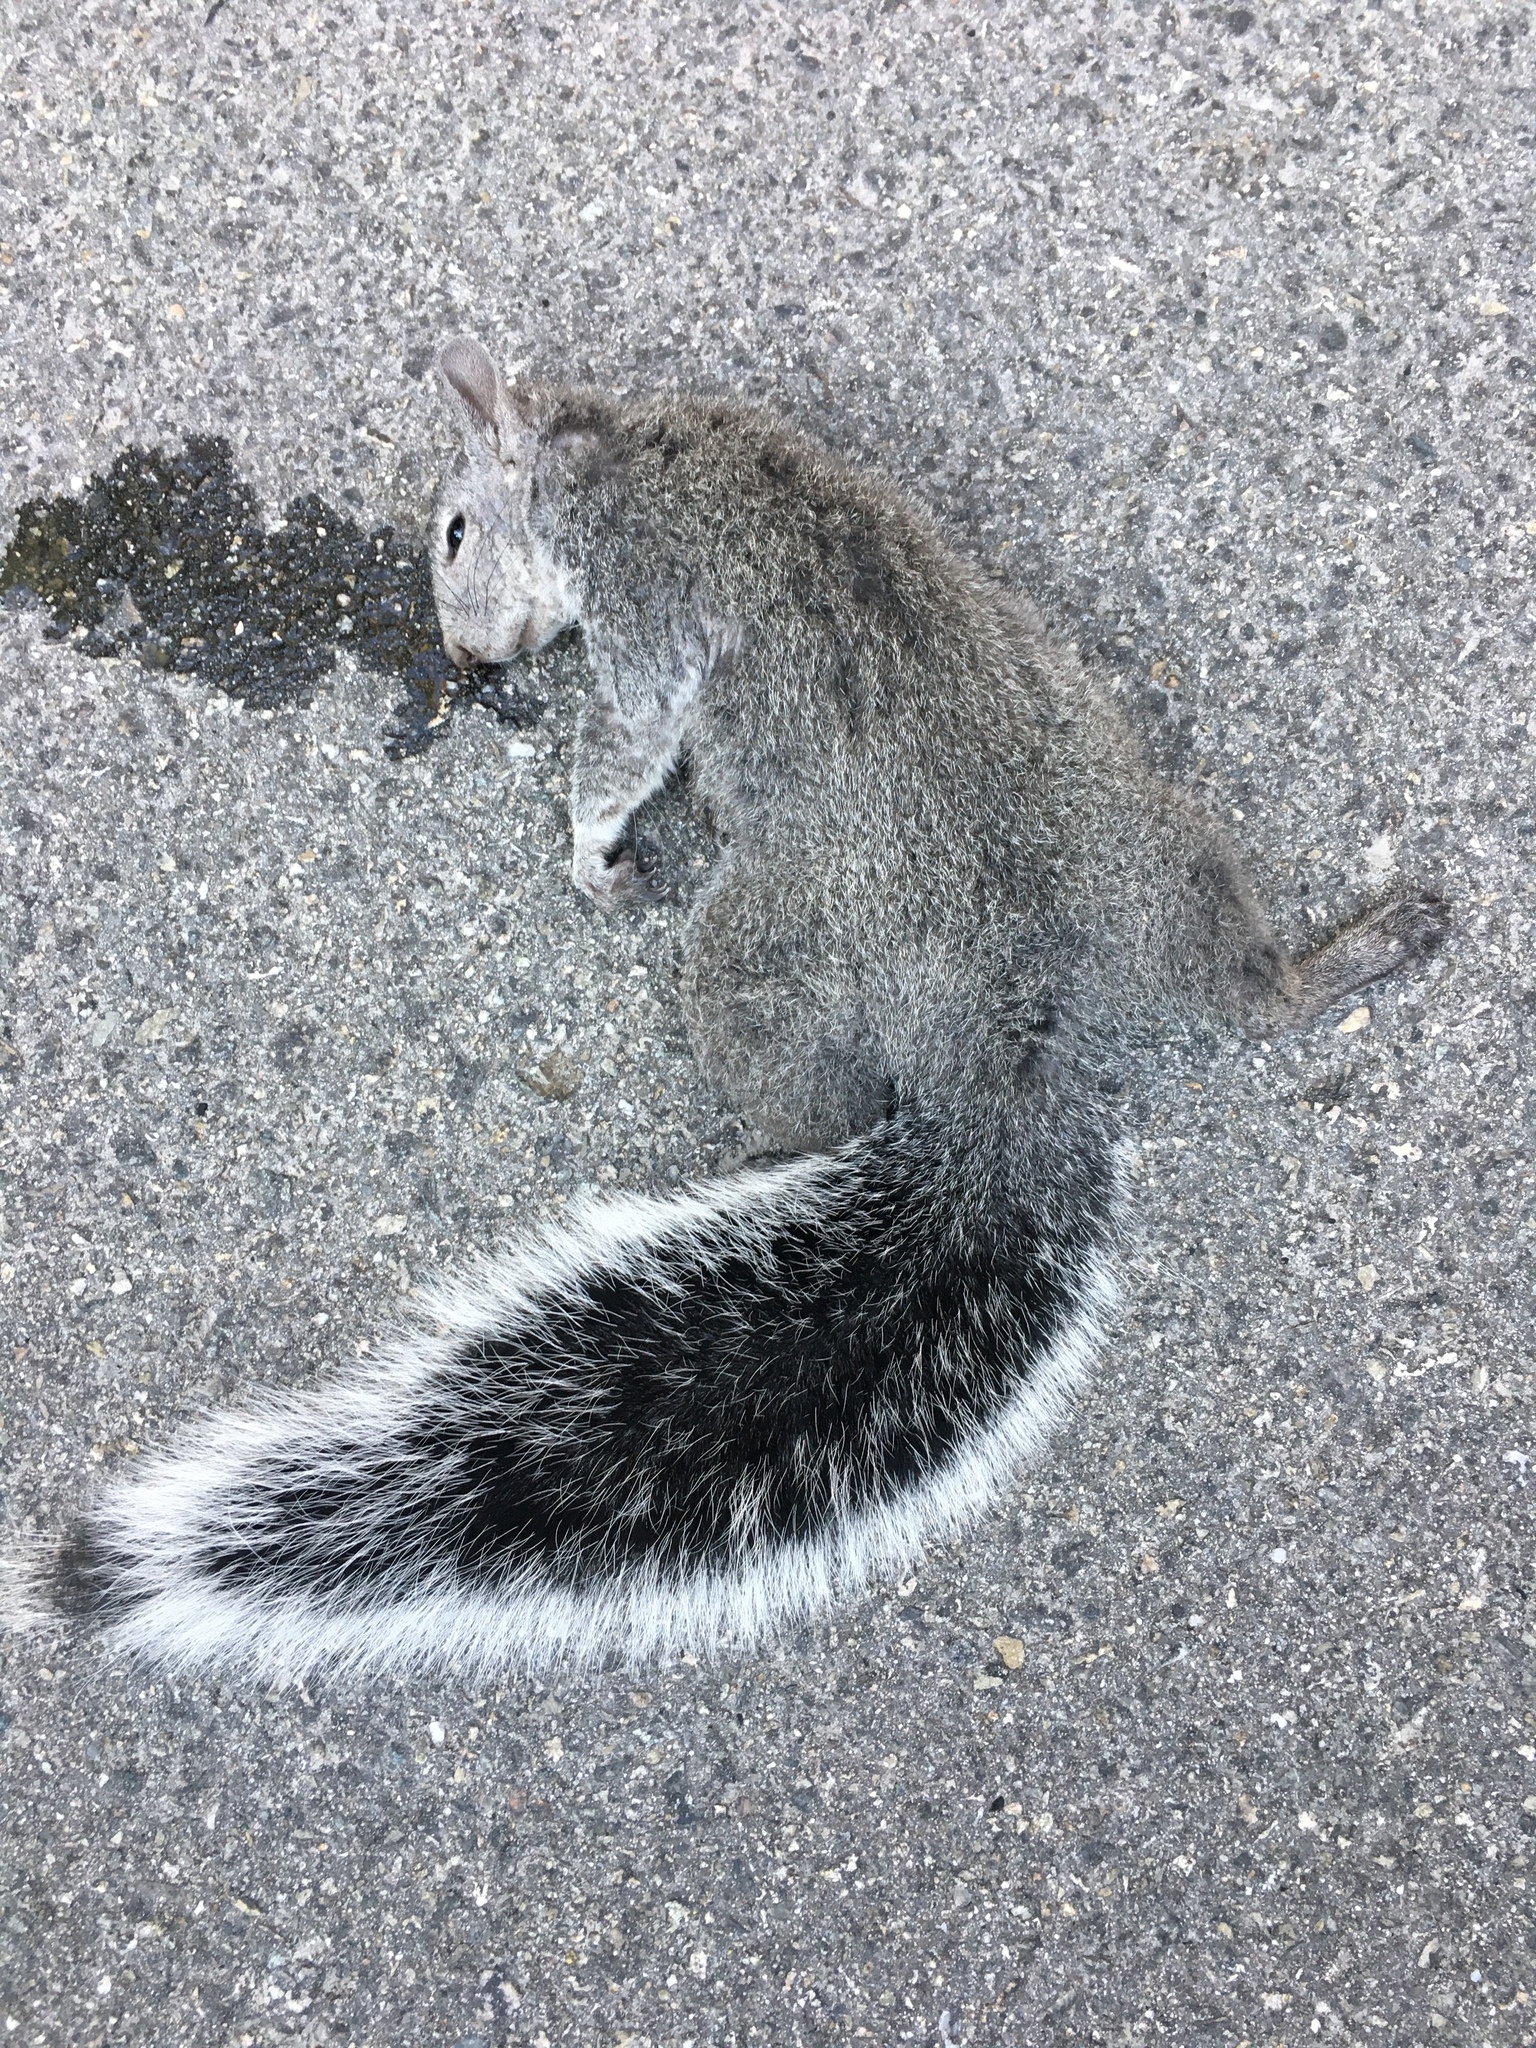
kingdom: Animalia
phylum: Chordata
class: Mammalia
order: Rodentia
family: Sciuridae
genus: Sciurus
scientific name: Sciurus griseus
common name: Western gray squirrel
